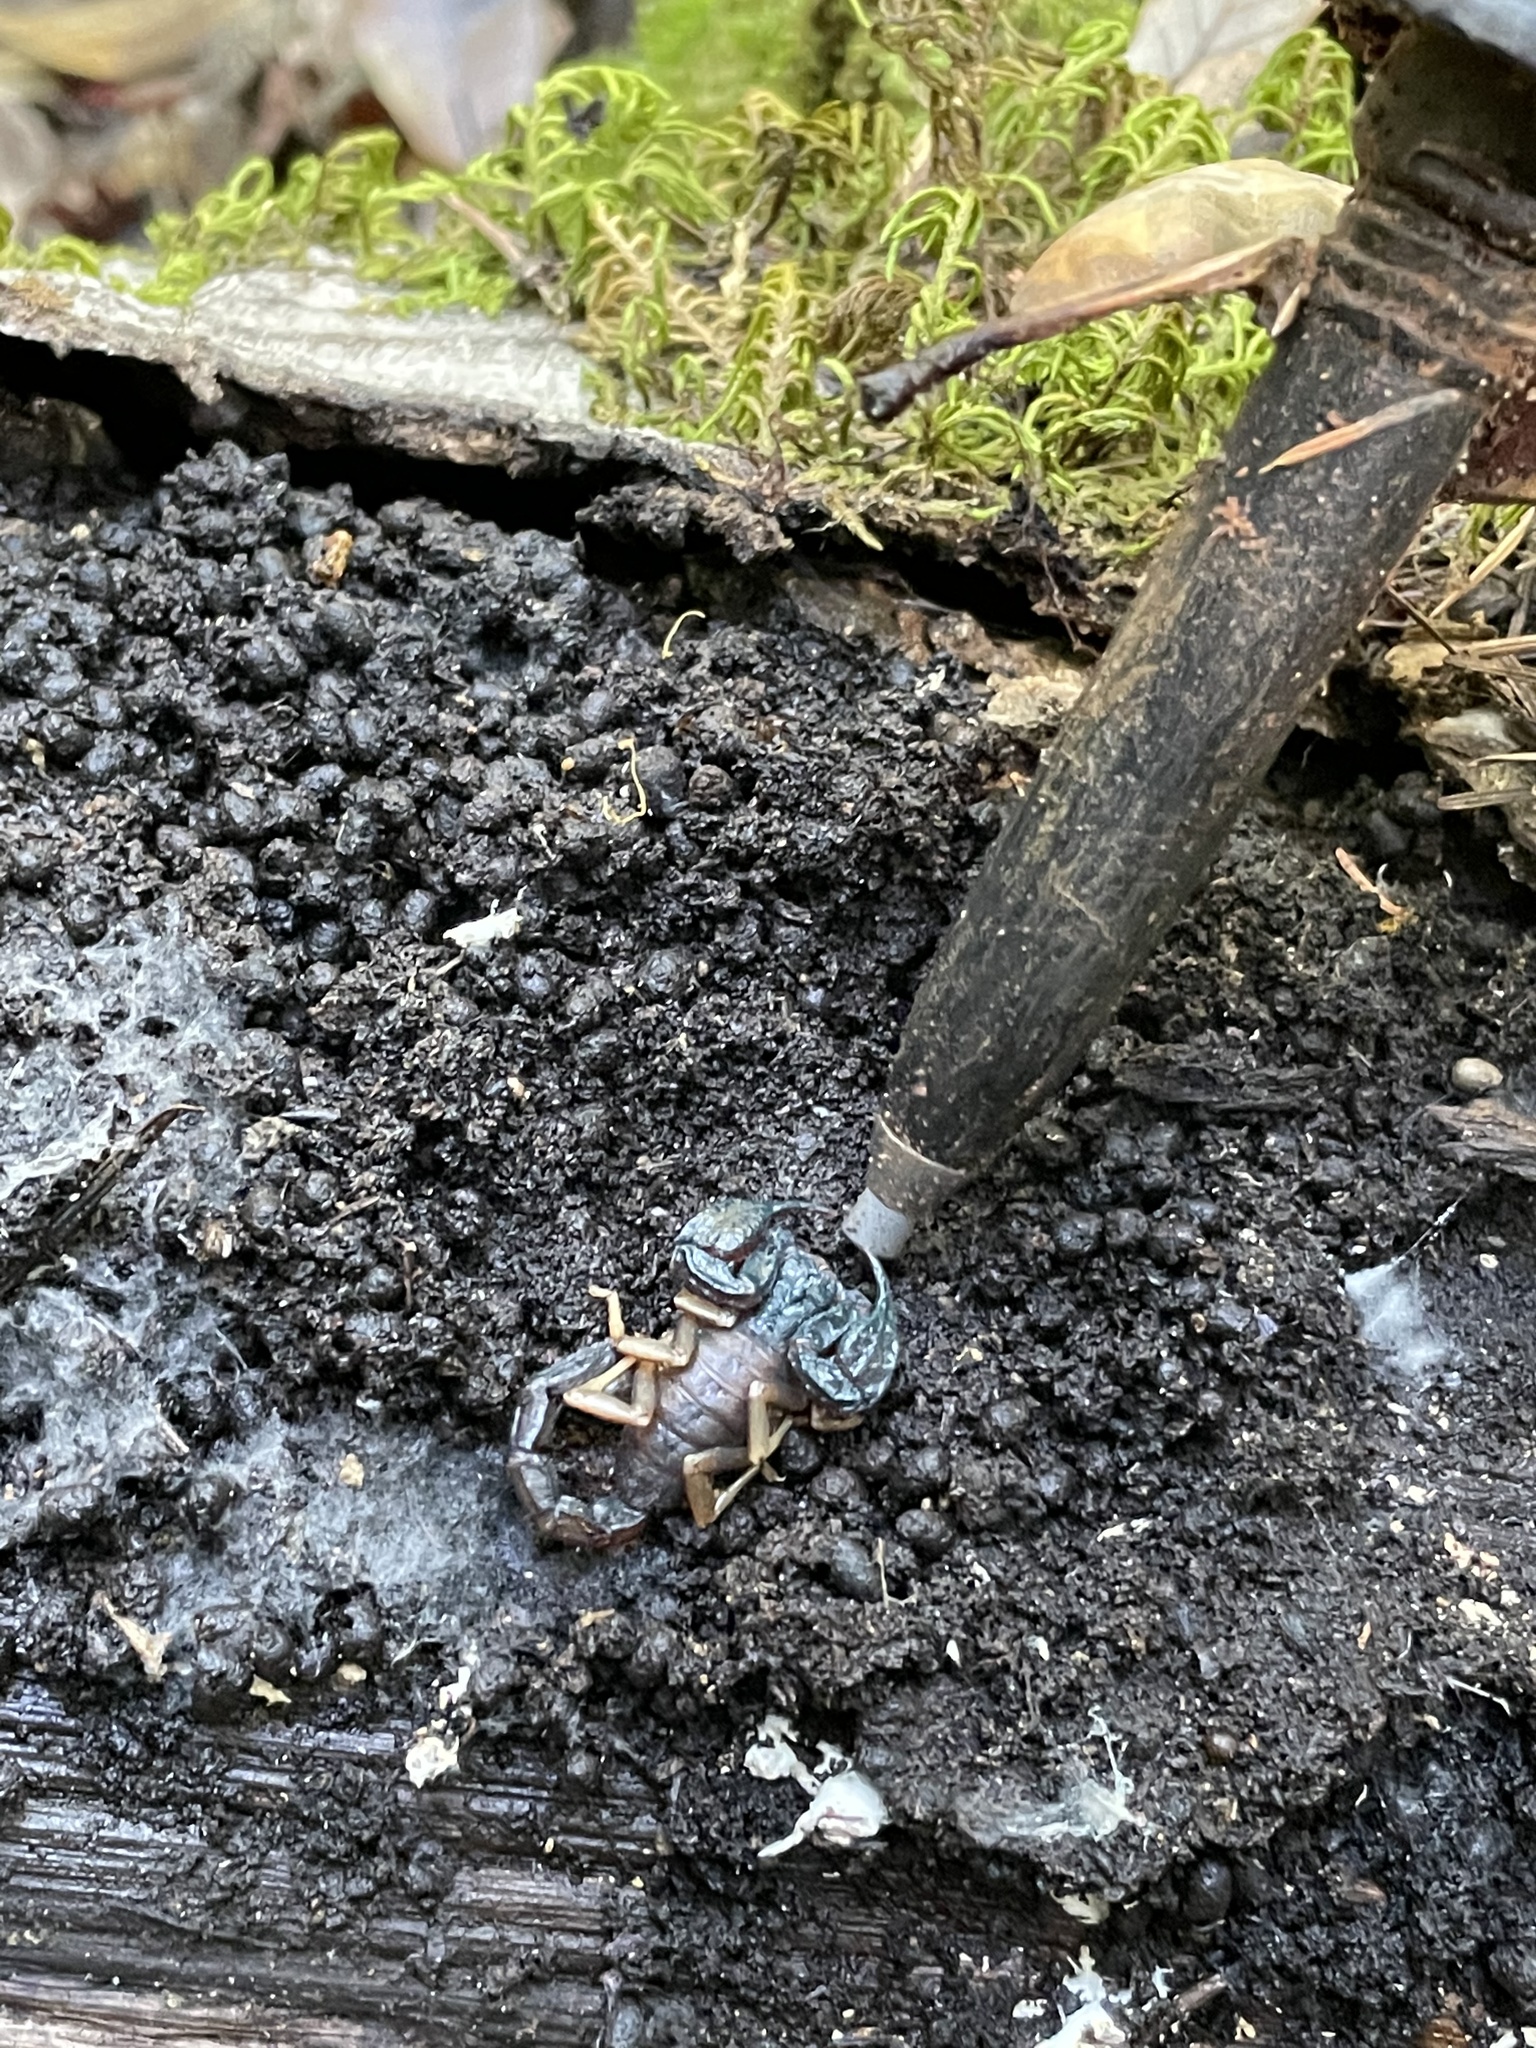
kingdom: Animalia
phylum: Arthropoda
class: Arachnida
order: Scorpiones
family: Chactidae
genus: Uroctonus
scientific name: Uroctonus mordax
